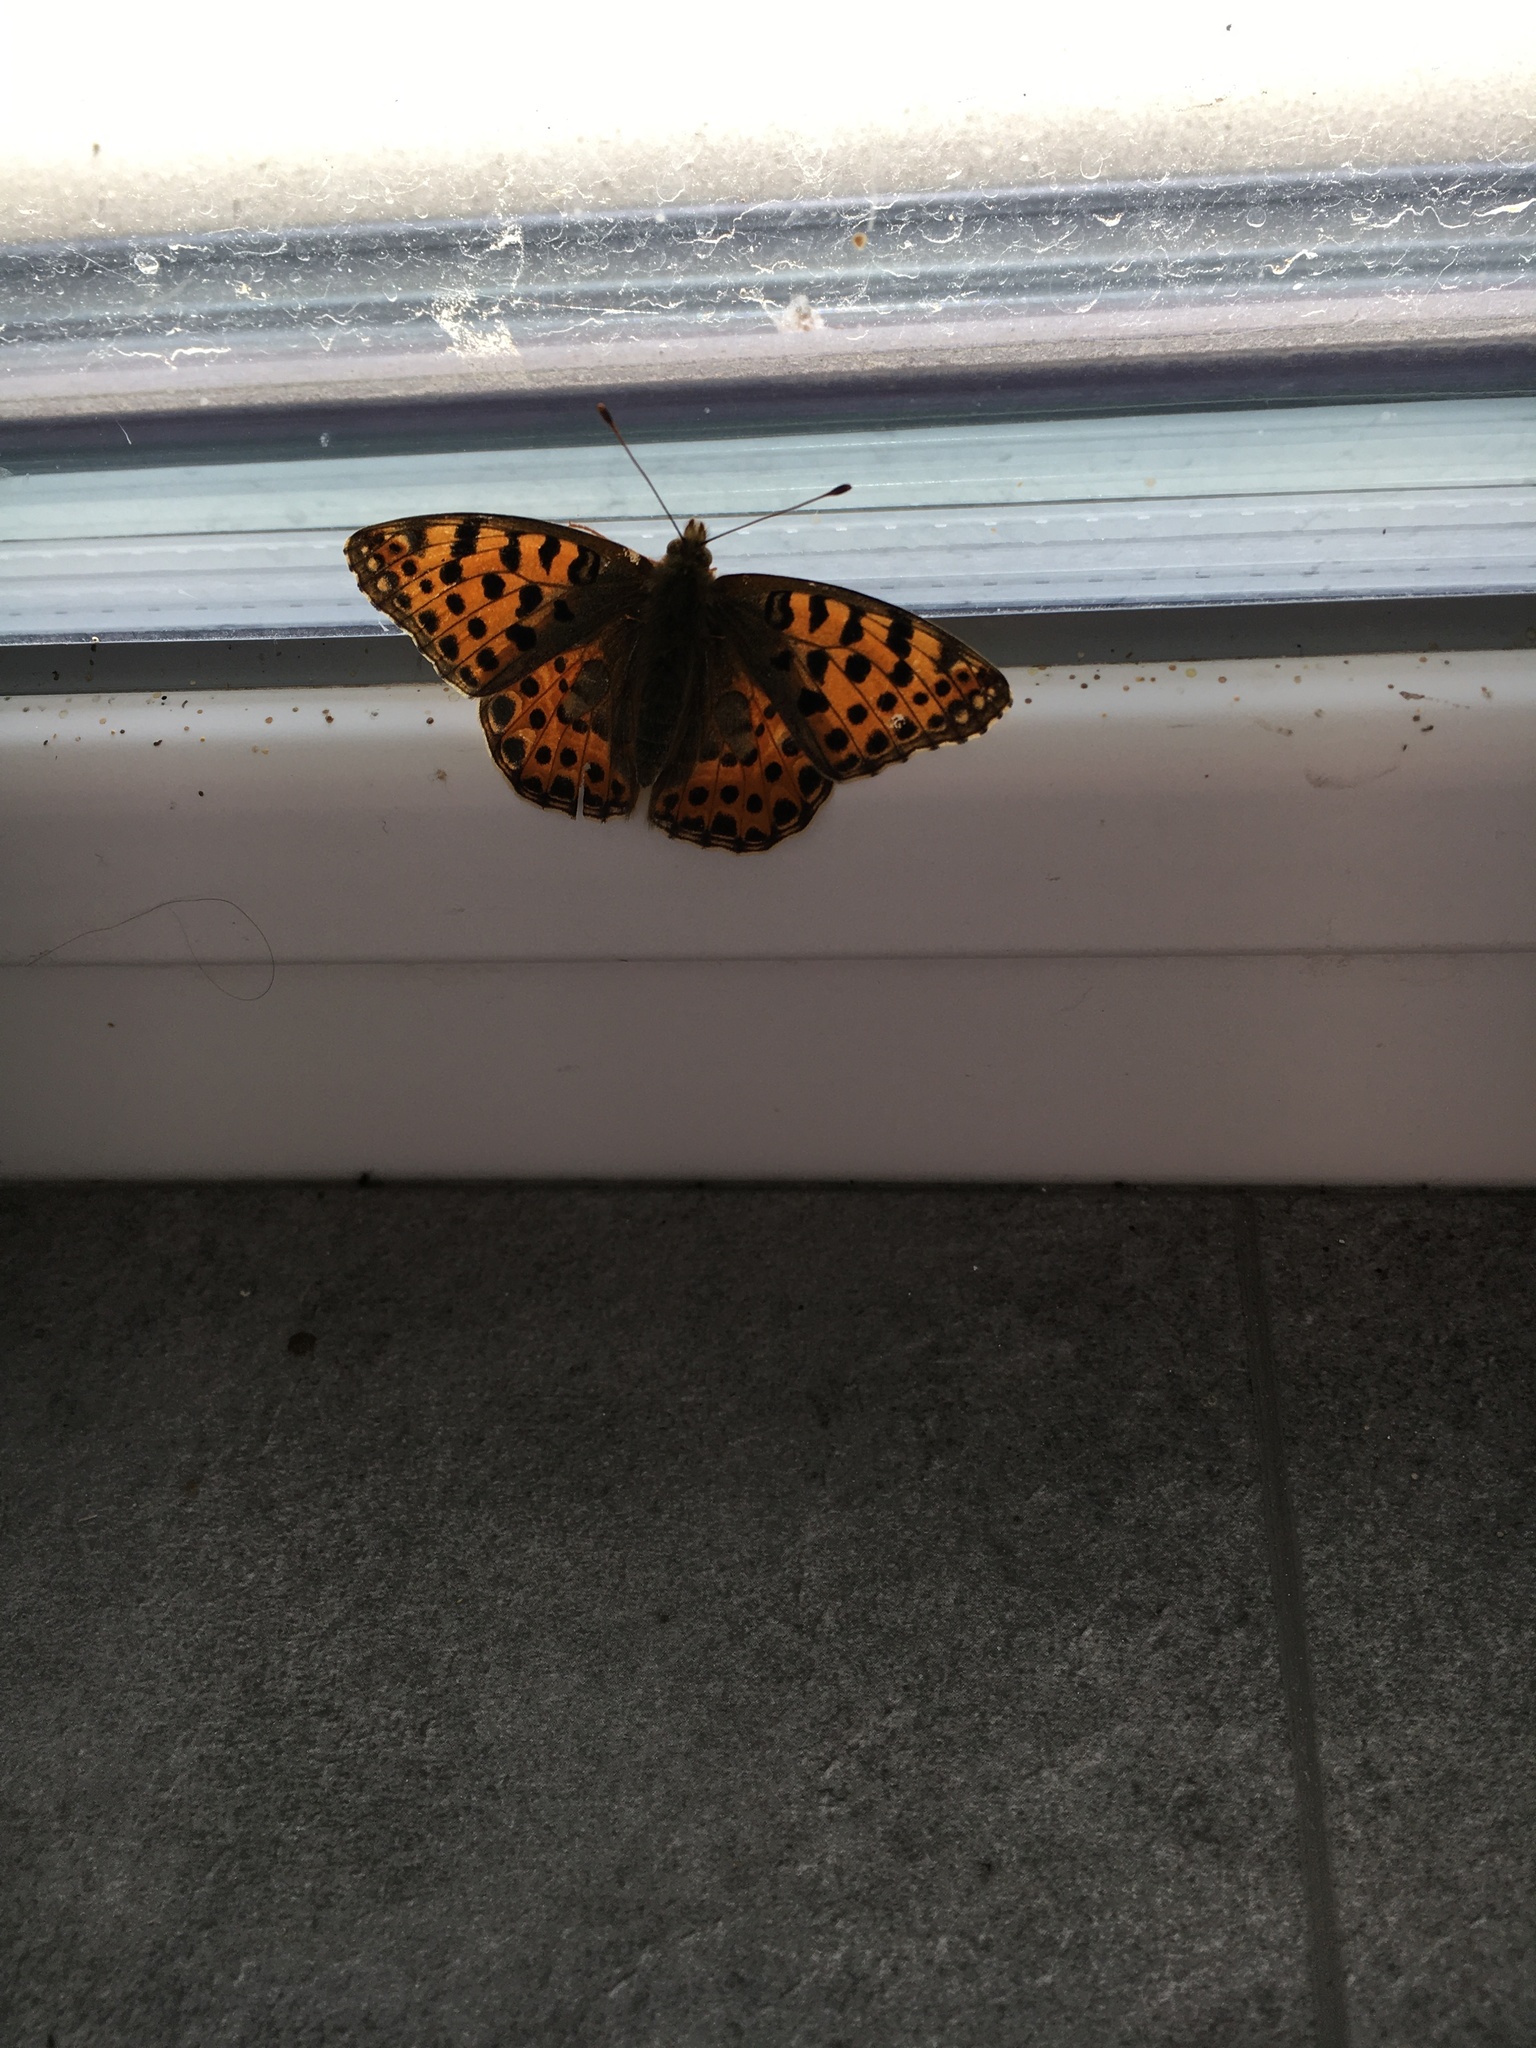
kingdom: Animalia
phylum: Arthropoda
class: Insecta
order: Lepidoptera
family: Nymphalidae
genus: Issoria
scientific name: Issoria lathonia
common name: Queen of spain fritillary
